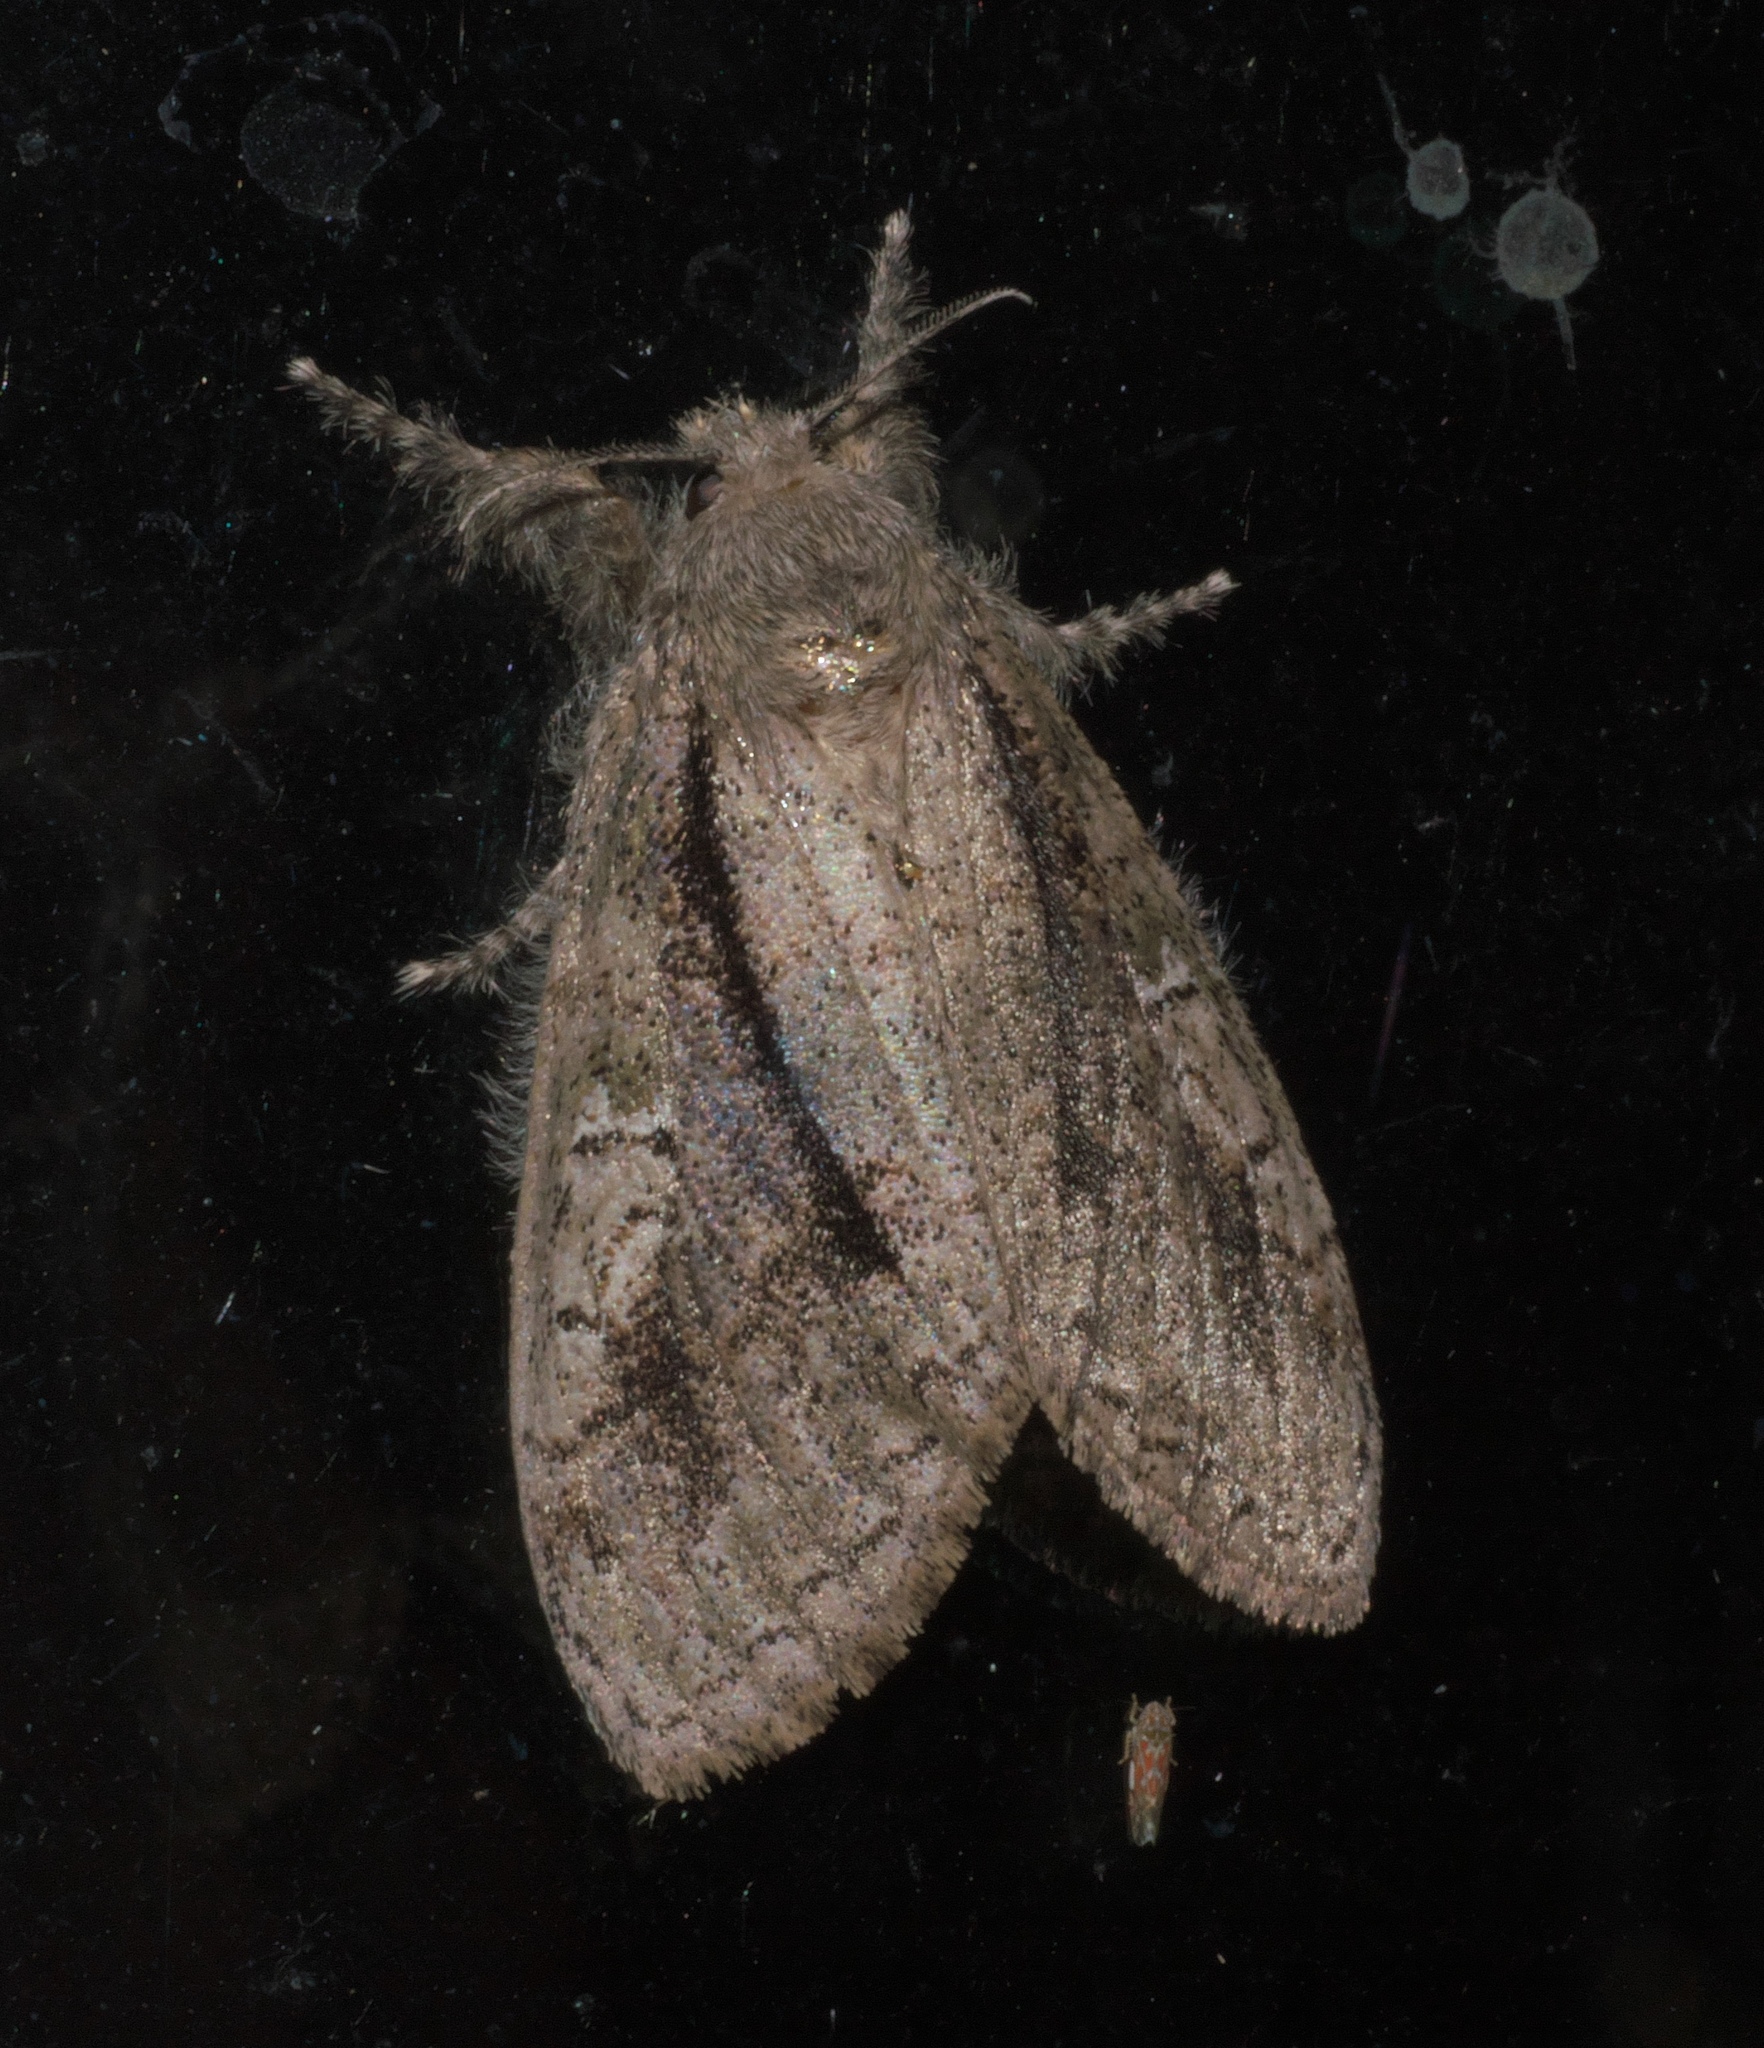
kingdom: Animalia
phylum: Arthropoda
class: Insecta
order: Lepidoptera
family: Erebidae
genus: Dasychira
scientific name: Dasychira tephra
